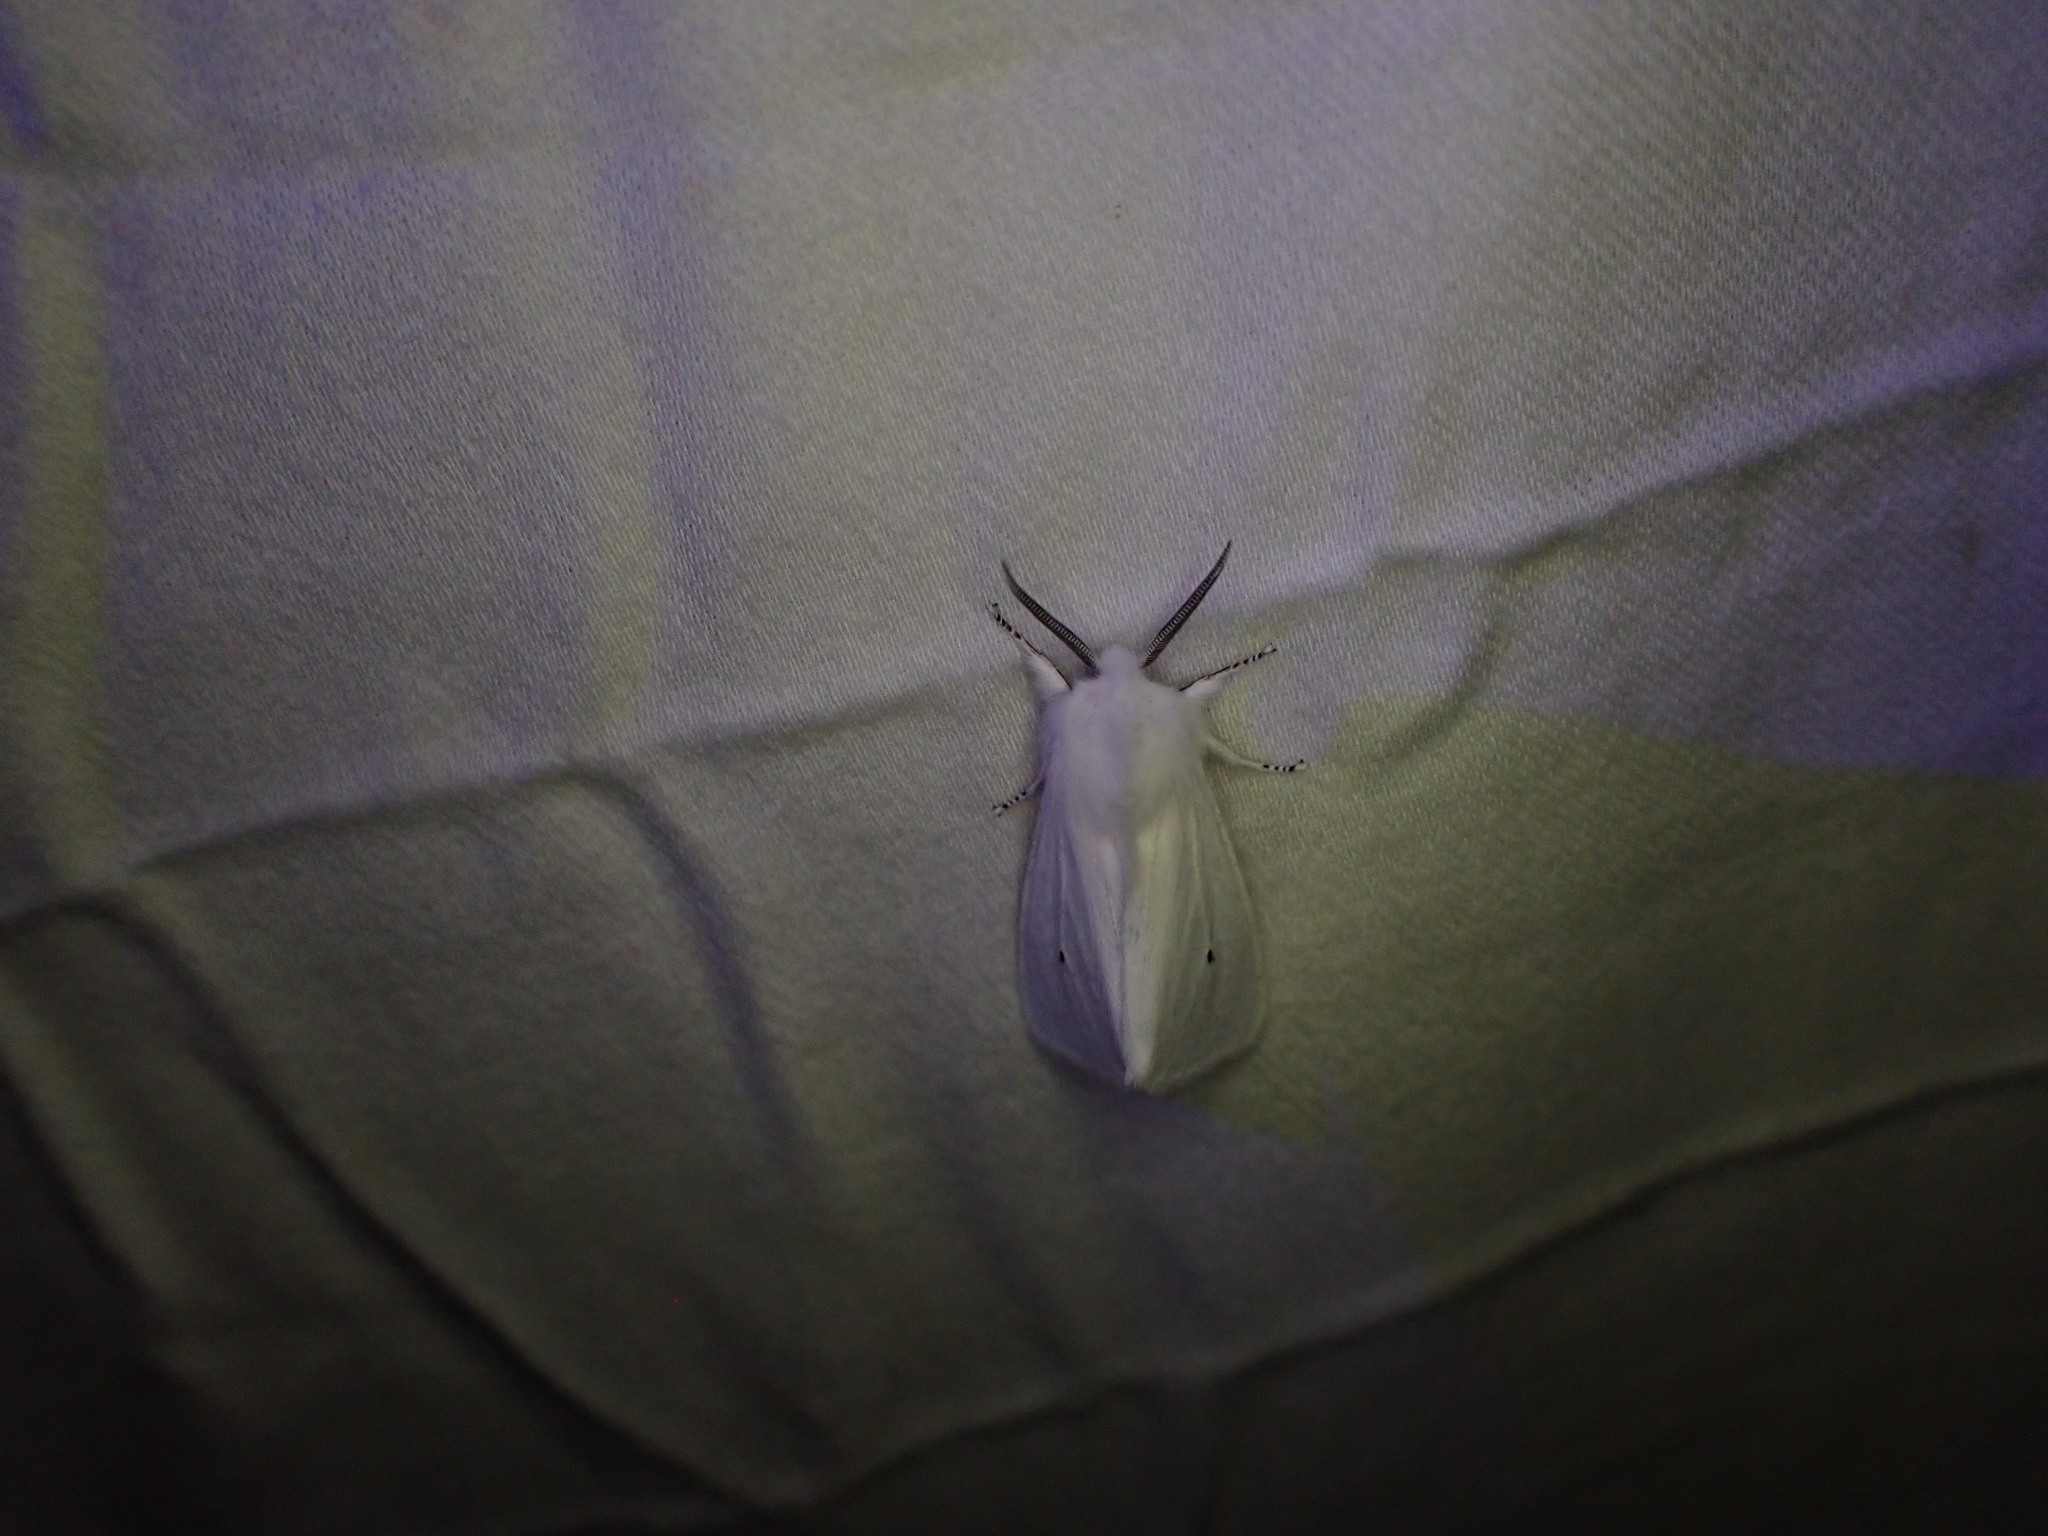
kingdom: Animalia
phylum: Arthropoda
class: Insecta
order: Lepidoptera
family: Erebidae
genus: Spilosoma
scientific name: Spilosoma virginica
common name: Virginia tiger moth
